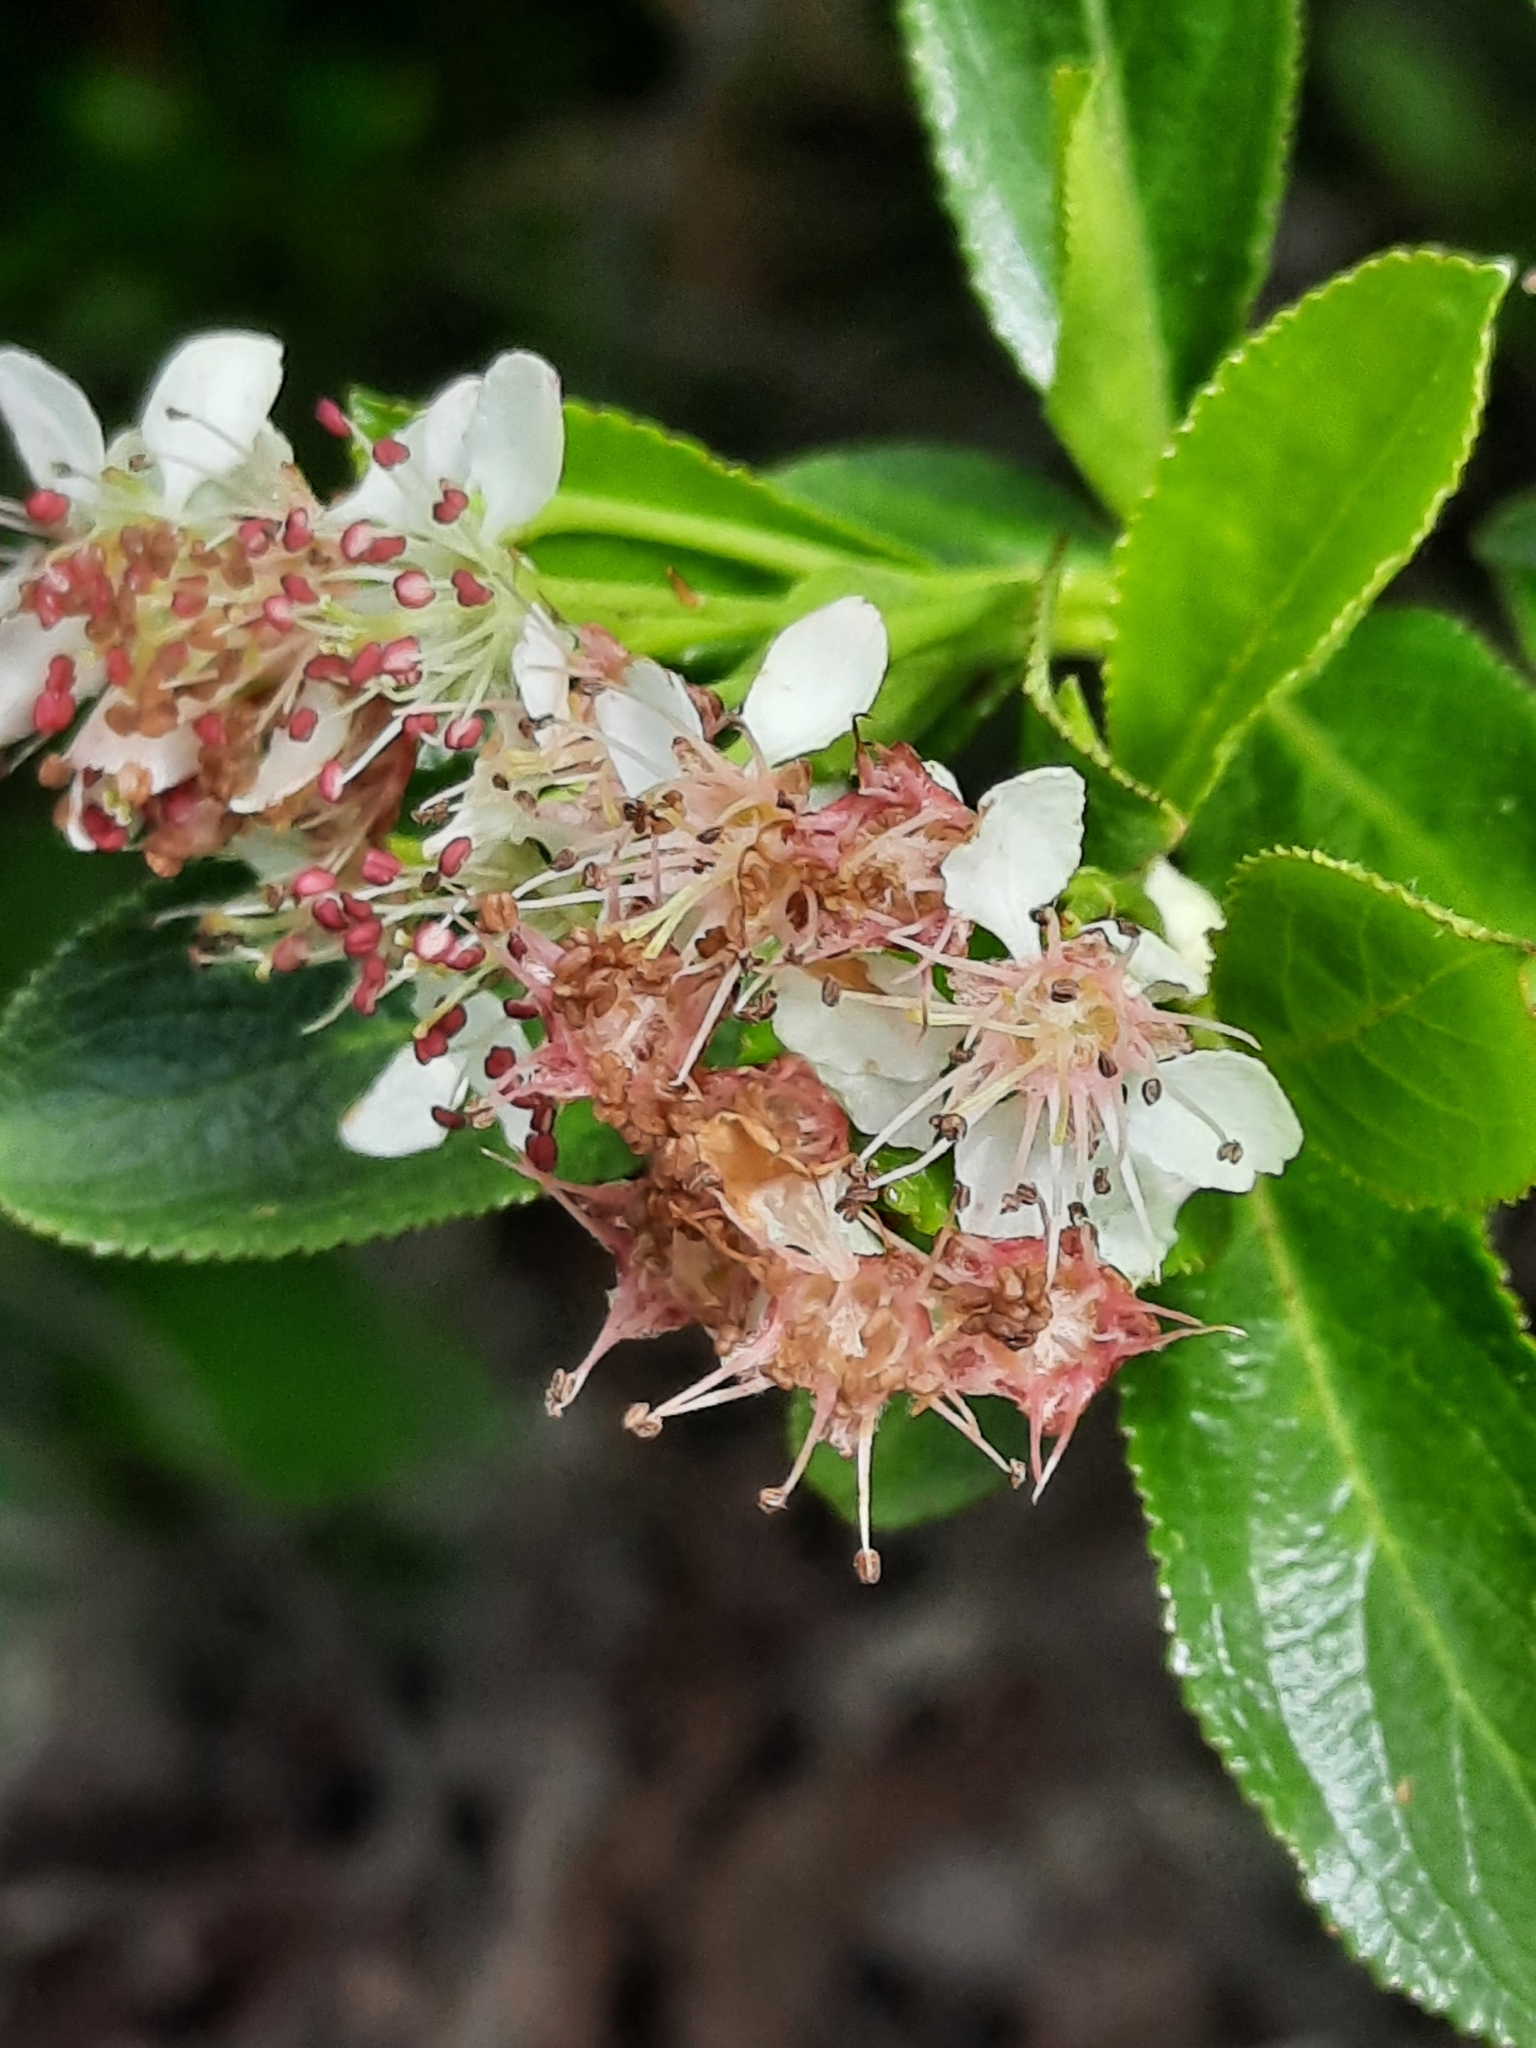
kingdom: Plantae
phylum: Tracheophyta
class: Magnoliopsida
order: Rosales
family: Rosaceae
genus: Aronia
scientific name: Aronia melanocarpa
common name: Black chokeberry
